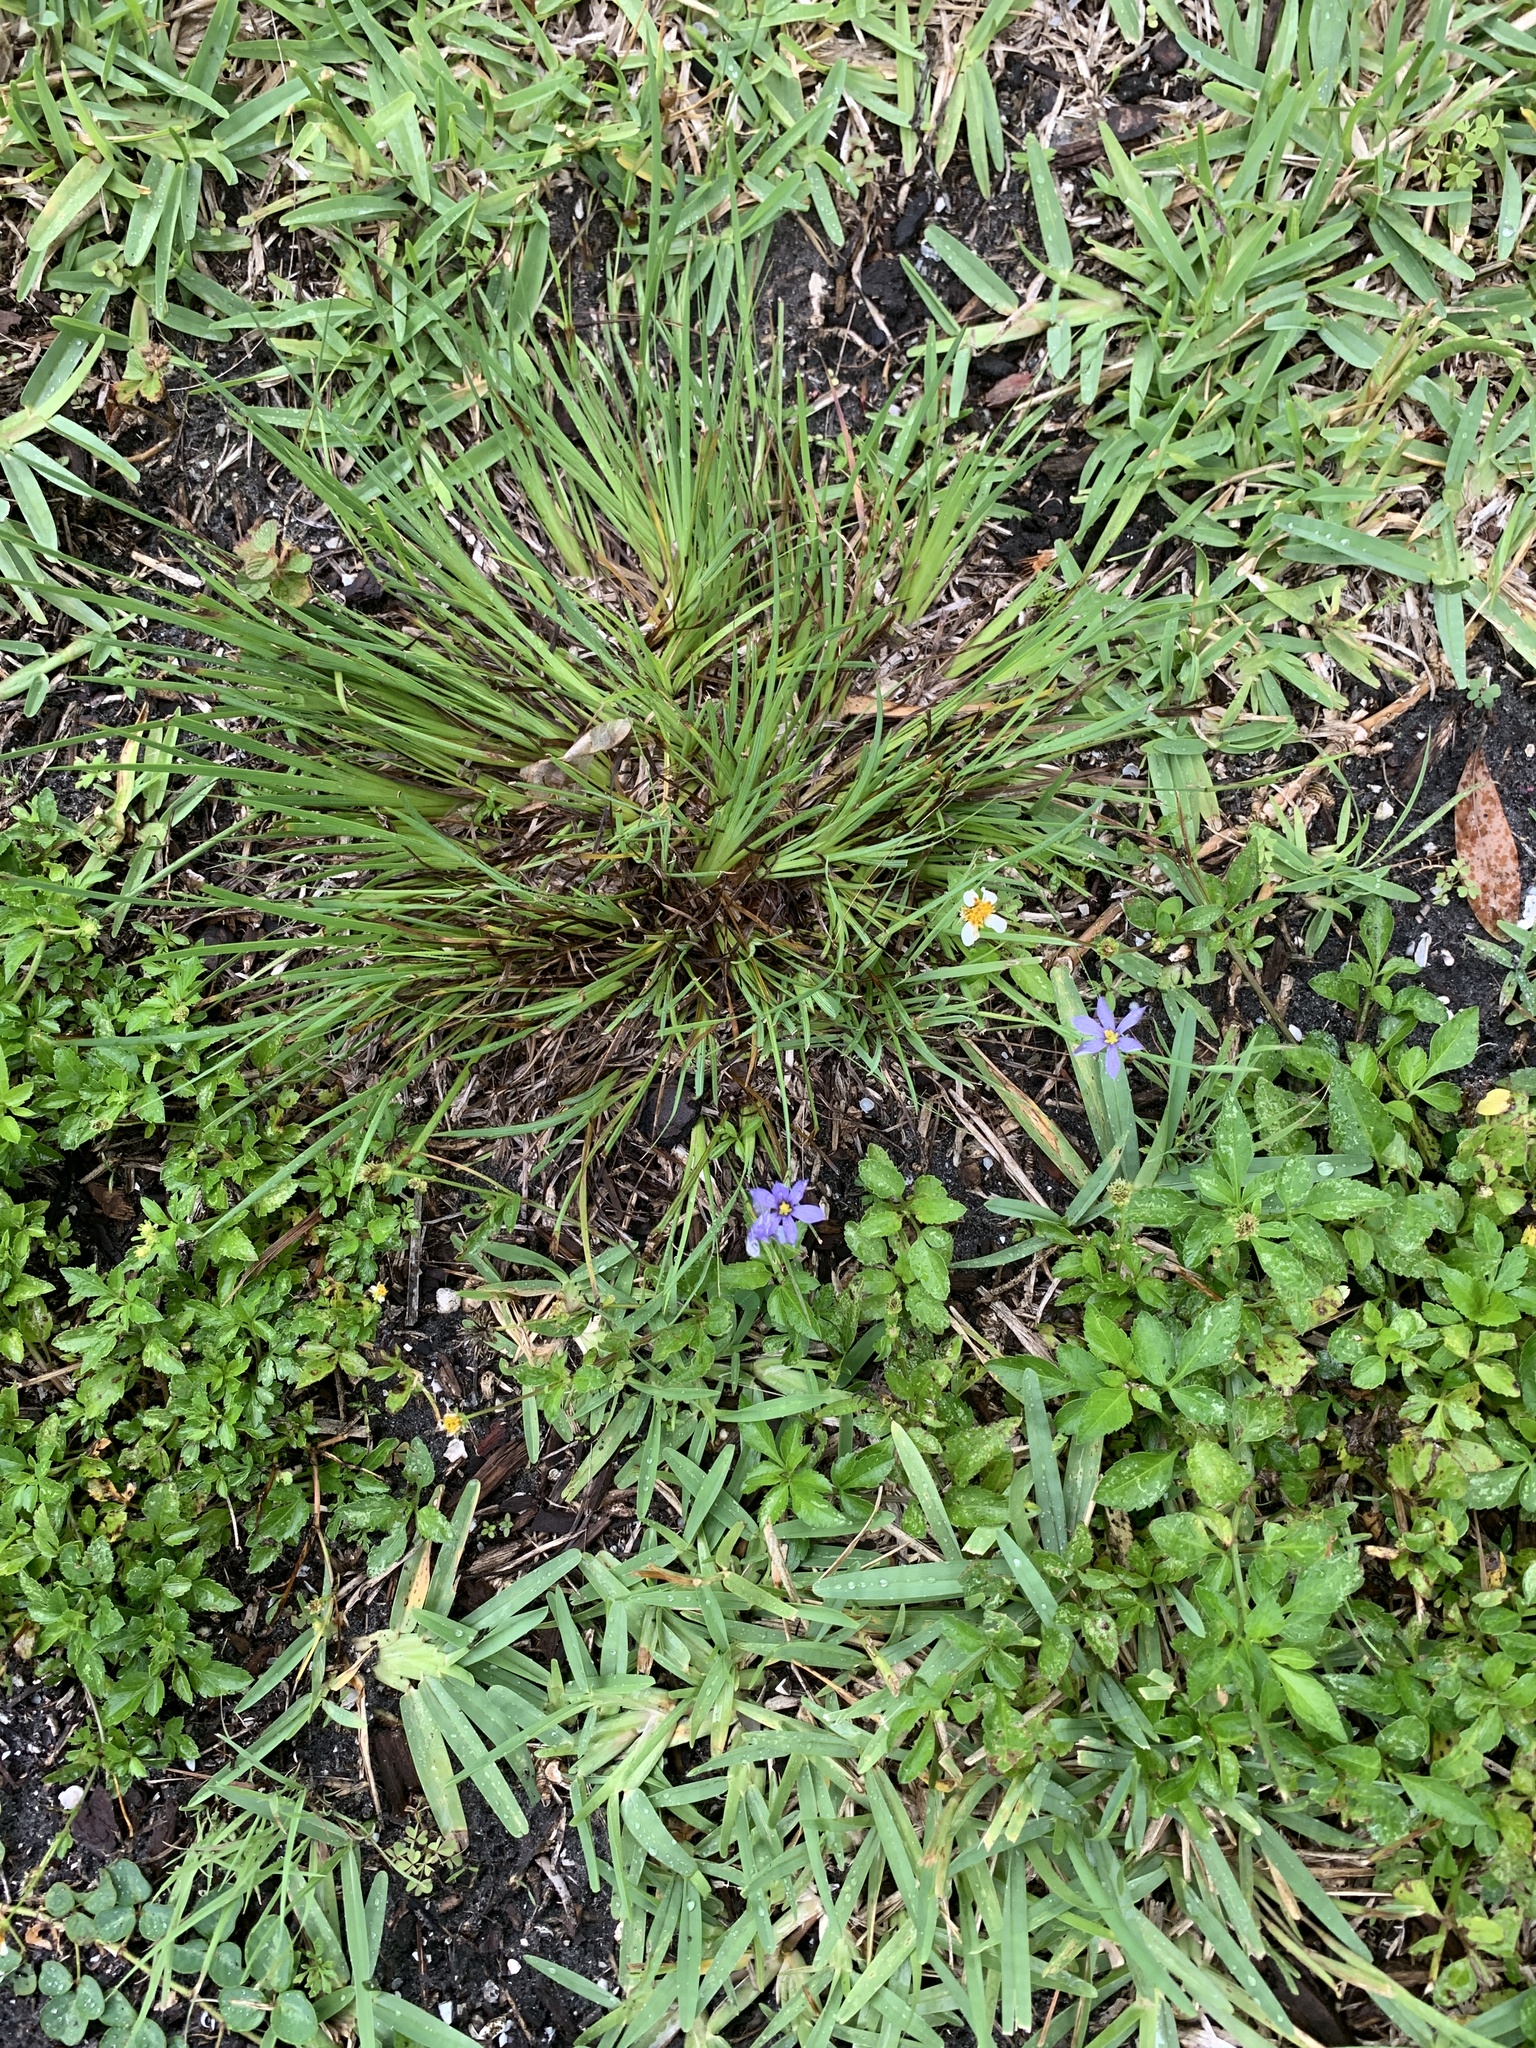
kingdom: Plantae
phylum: Tracheophyta
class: Liliopsida
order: Asparagales
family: Iridaceae
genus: Sisyrinchium
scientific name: Sisyrinchium angustifolium
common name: Narrow-leaf blue-eyed-grass
